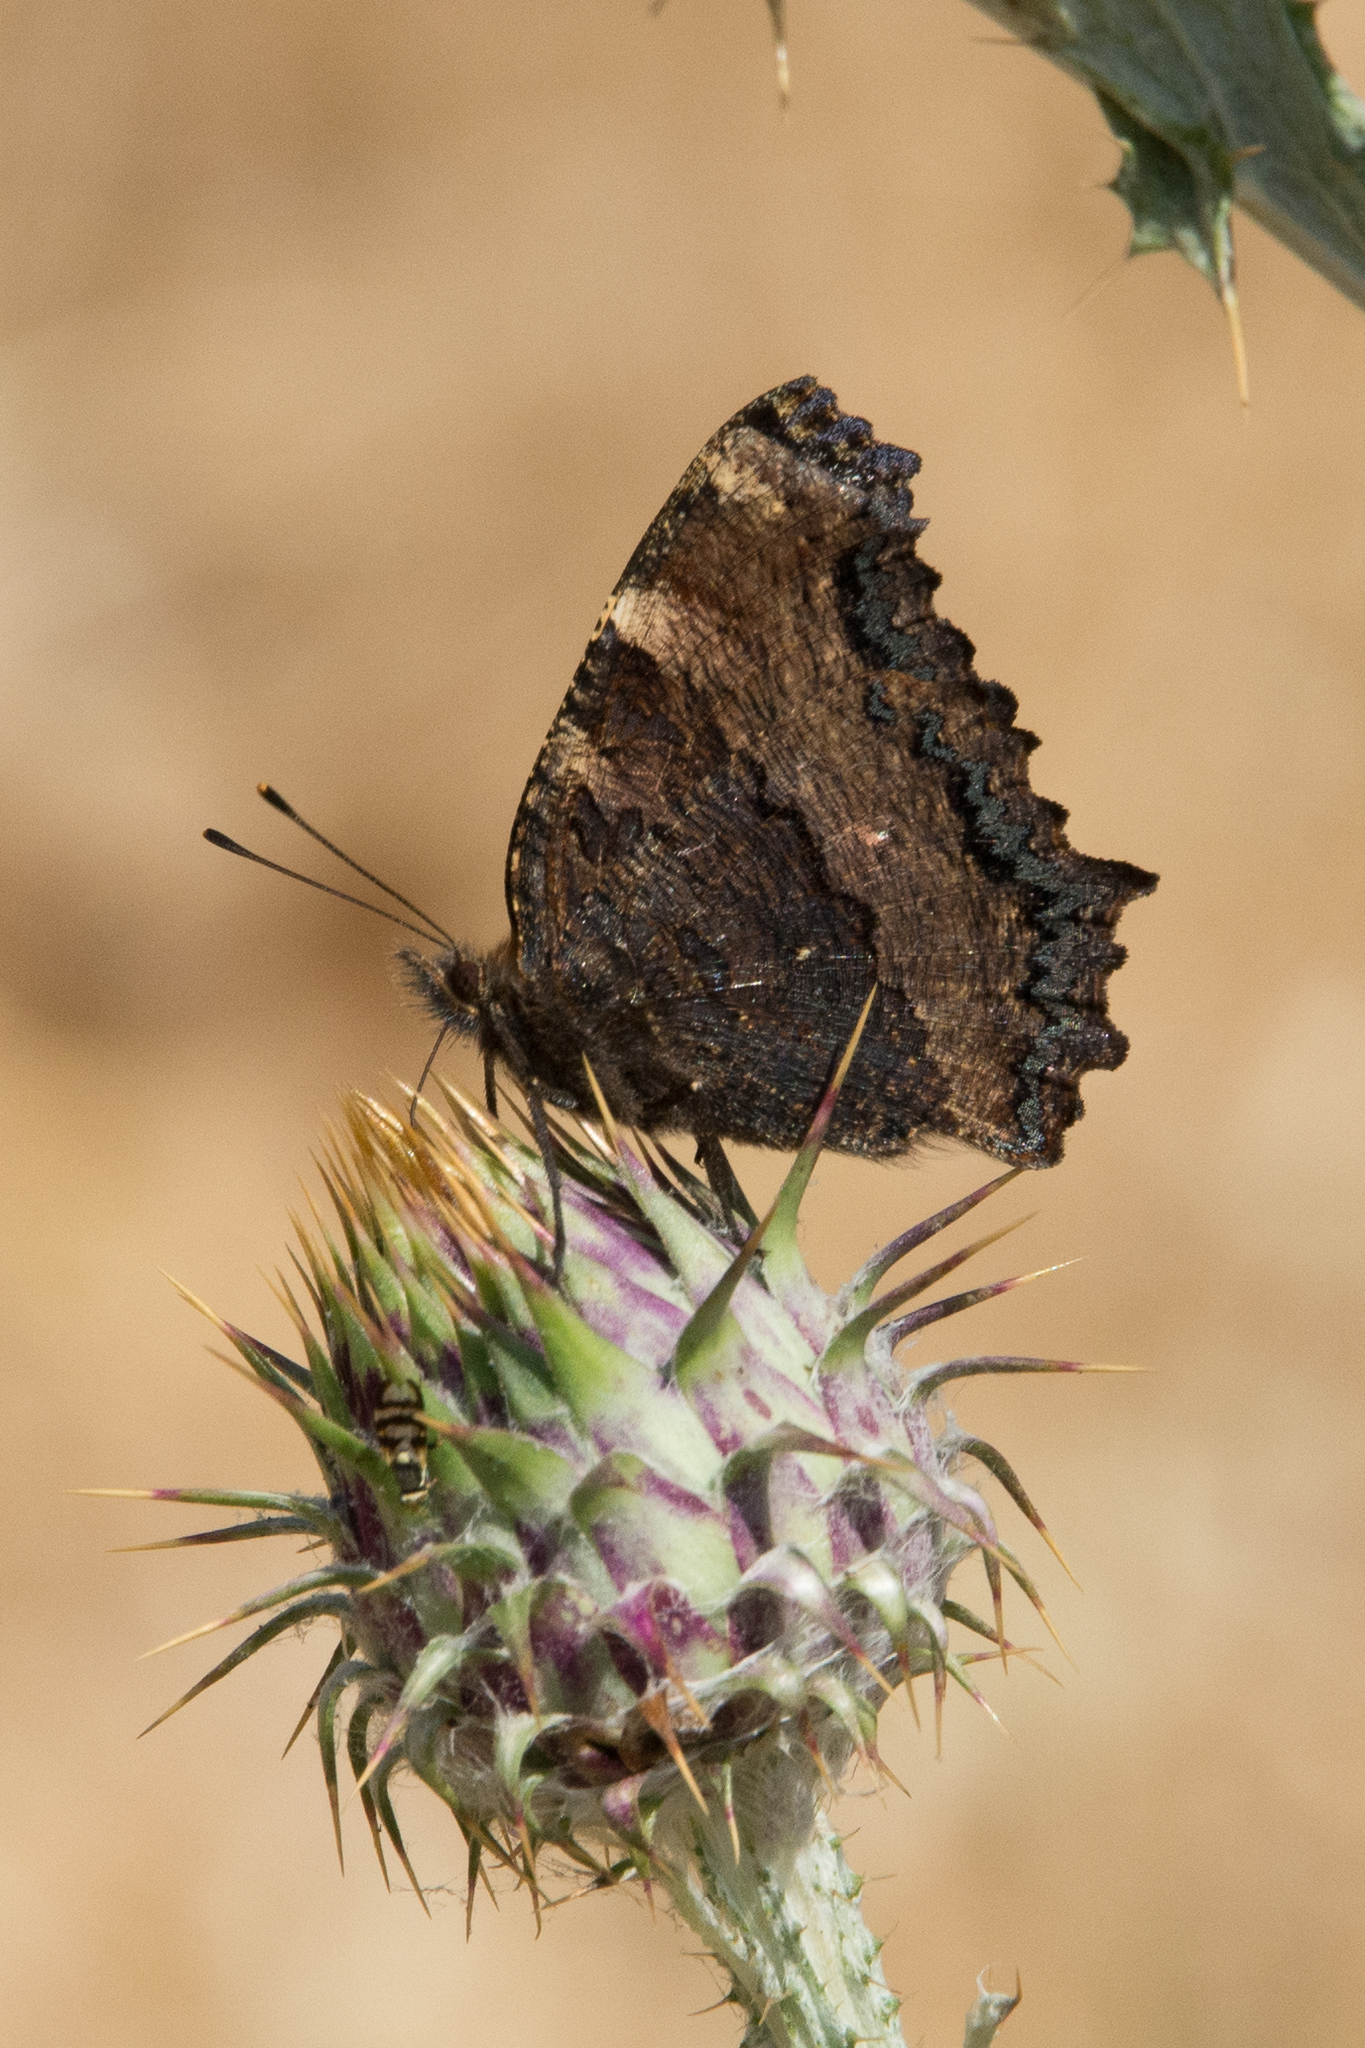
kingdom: Animalia
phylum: Arthropoda
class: Insecta
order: Lepidoptera
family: Nymphalidae
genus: Nymphalis
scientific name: Nymphalis polychloros
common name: Large tortoiseshell
